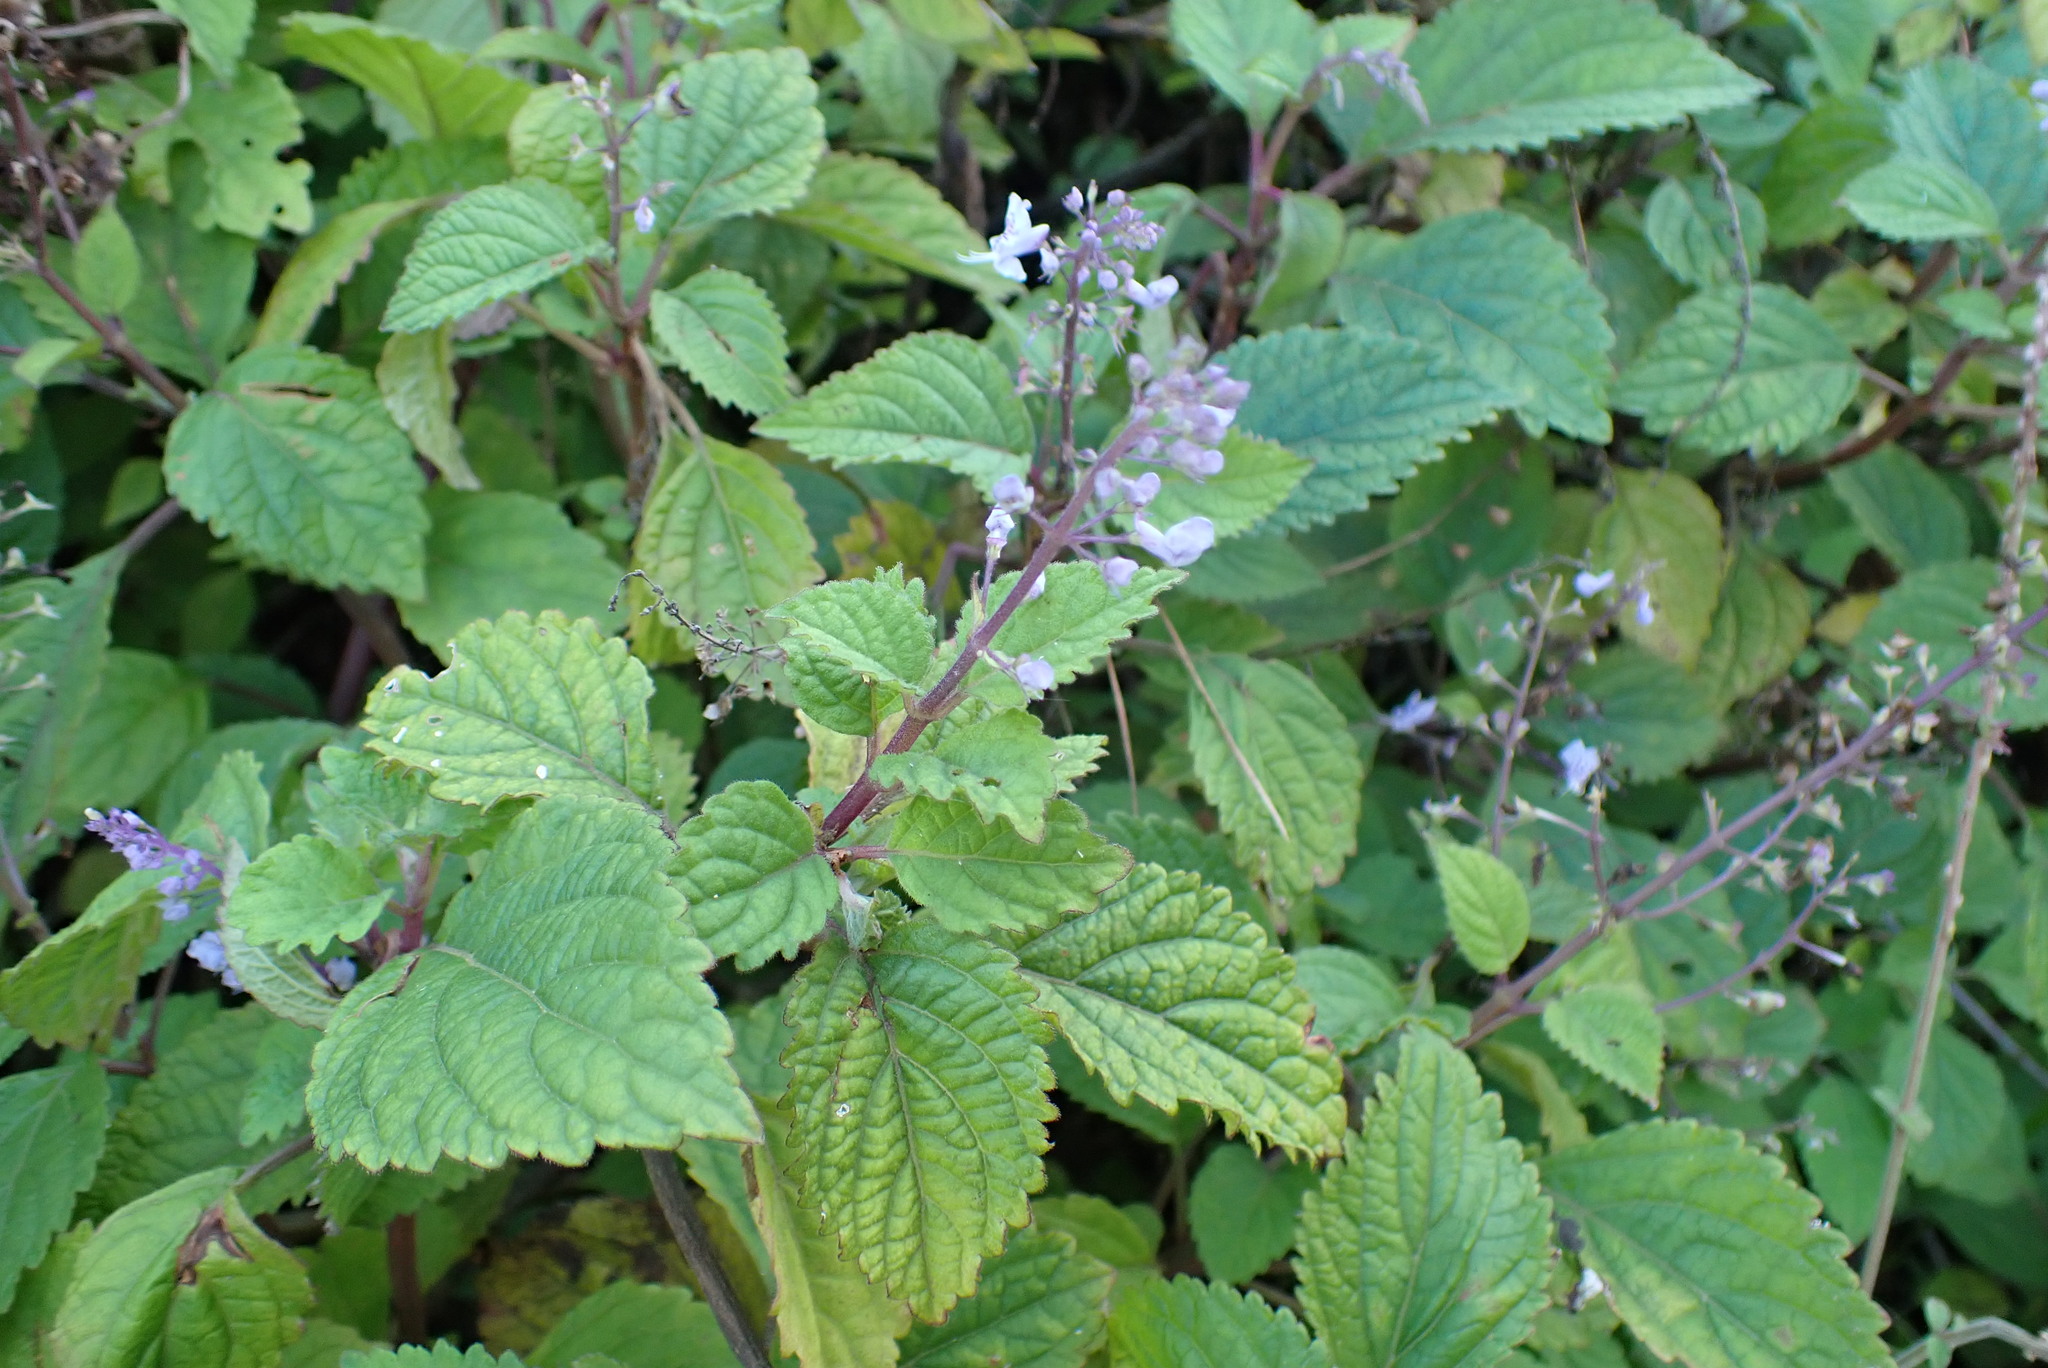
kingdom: Plantae
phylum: Tracheophyta
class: Magnoliopsida
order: Lamiales
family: Lamiaceae
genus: Plectranthus
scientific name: Plectranthus fruticosus
